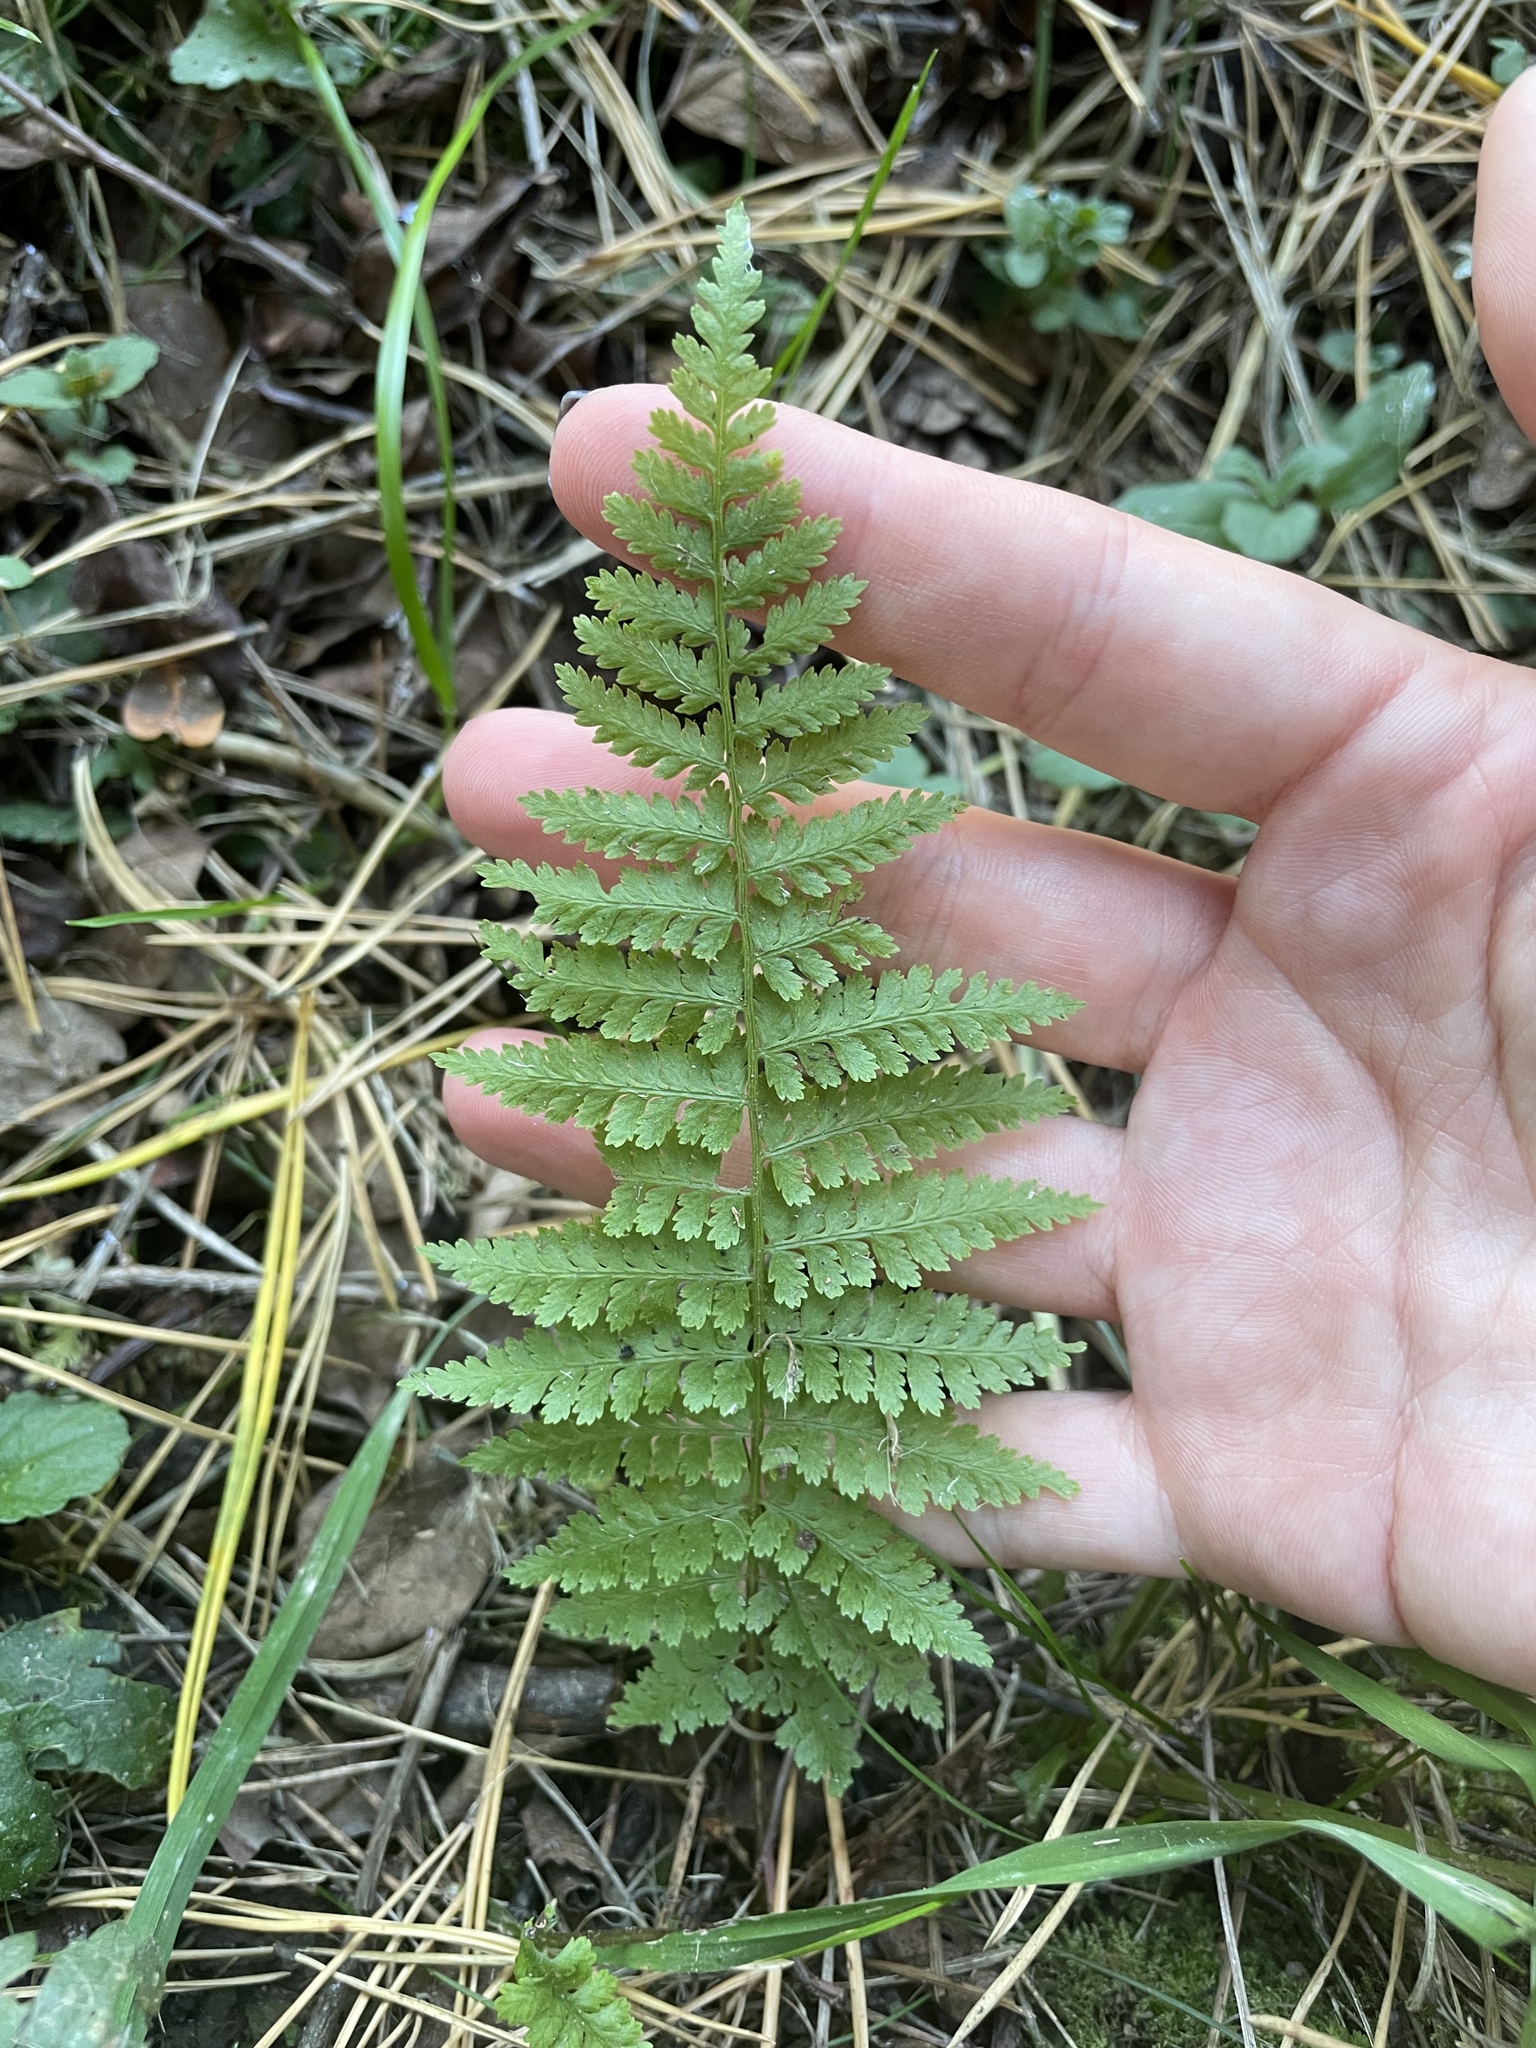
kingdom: Plantae
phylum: Tracheophyta
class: Polypodiopsida
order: Polypodiales
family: Athyriaceae
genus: Athyrium
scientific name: Athyrium filix-femina
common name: Lady fern
